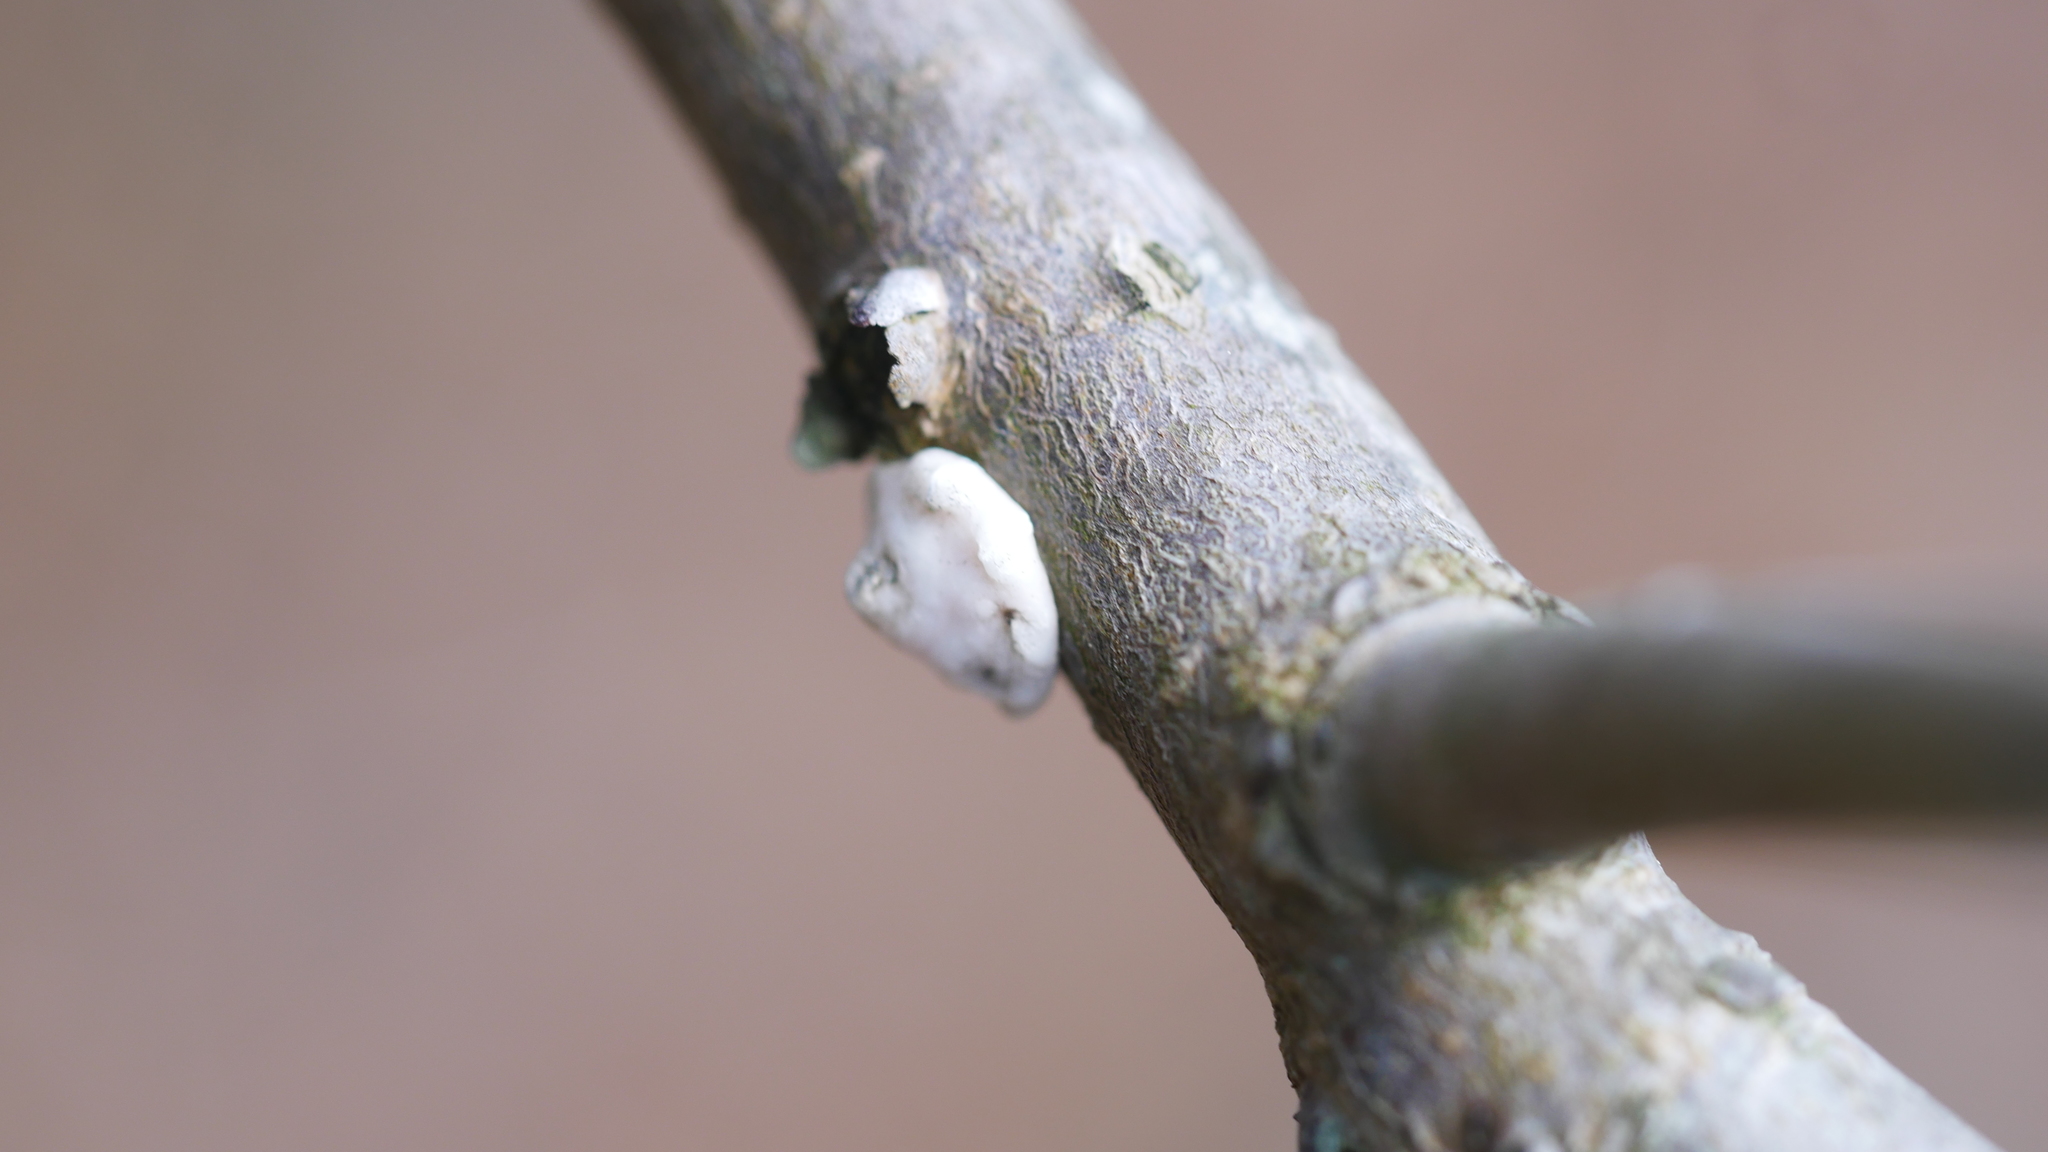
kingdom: Animalia
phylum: Arthropoda
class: Insecta
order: Hemiptera
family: Coccidae
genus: Ceroplastes
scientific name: Ceroplastes ceriferus
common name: Indian wax scale
